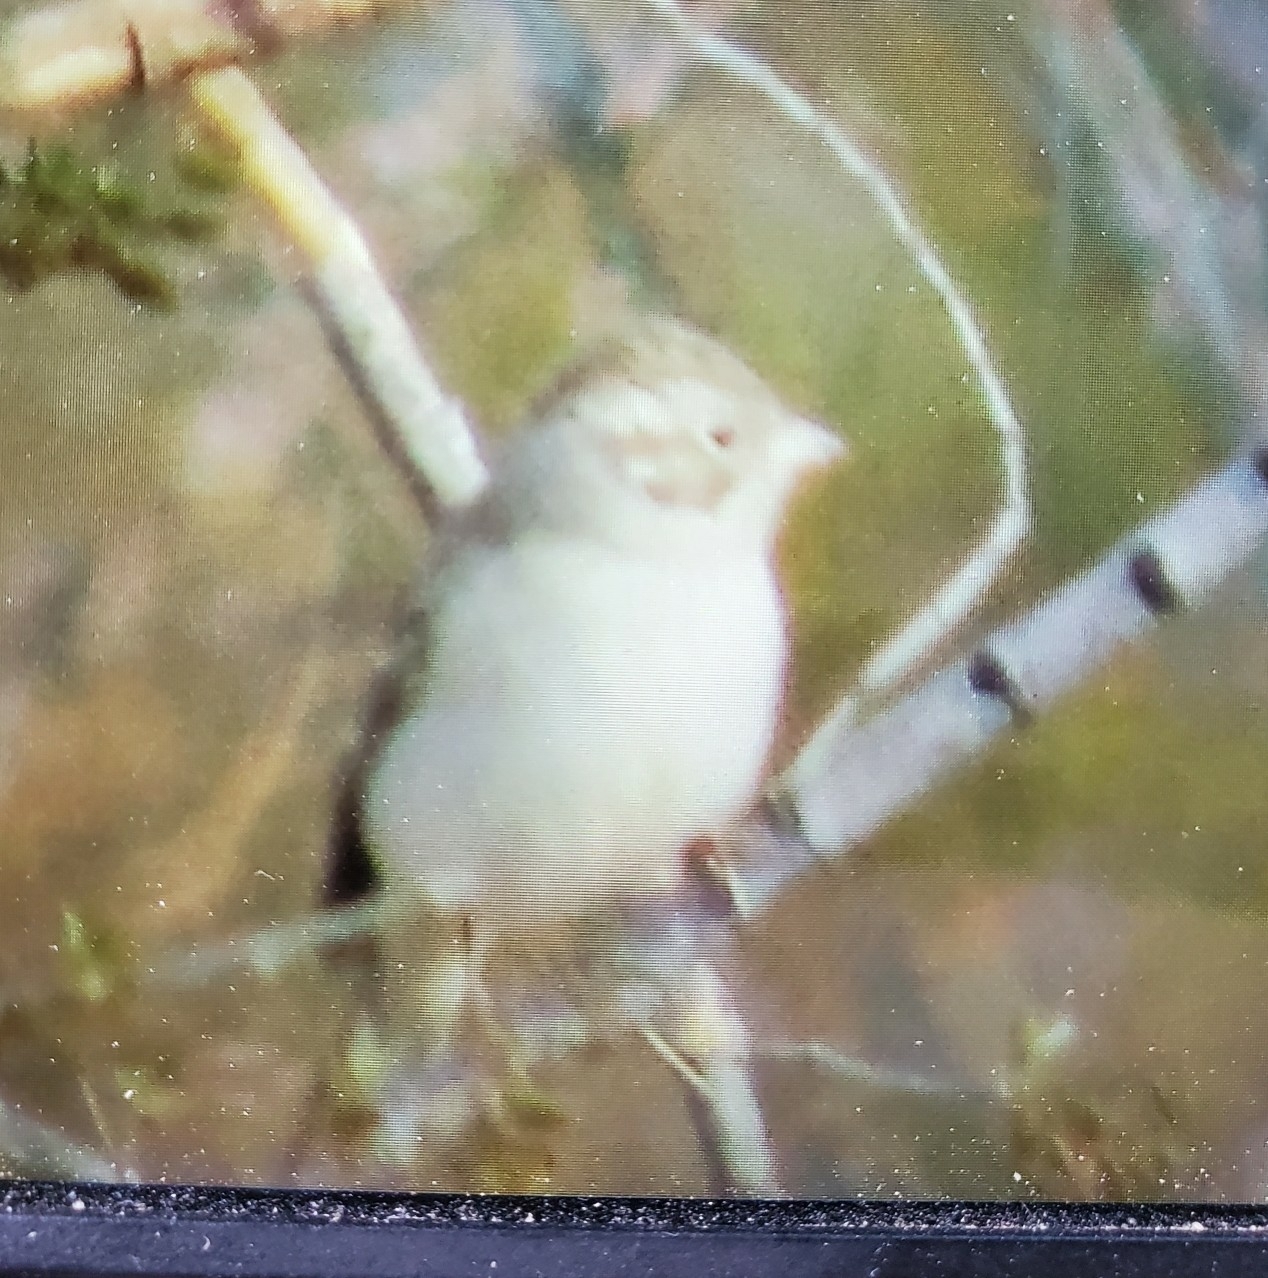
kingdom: Animalia
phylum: Chordata
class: Aves
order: Passeriformes
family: Passerellidae
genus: Spizella
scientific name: Spizella breweri
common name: Brewer's sparrow
